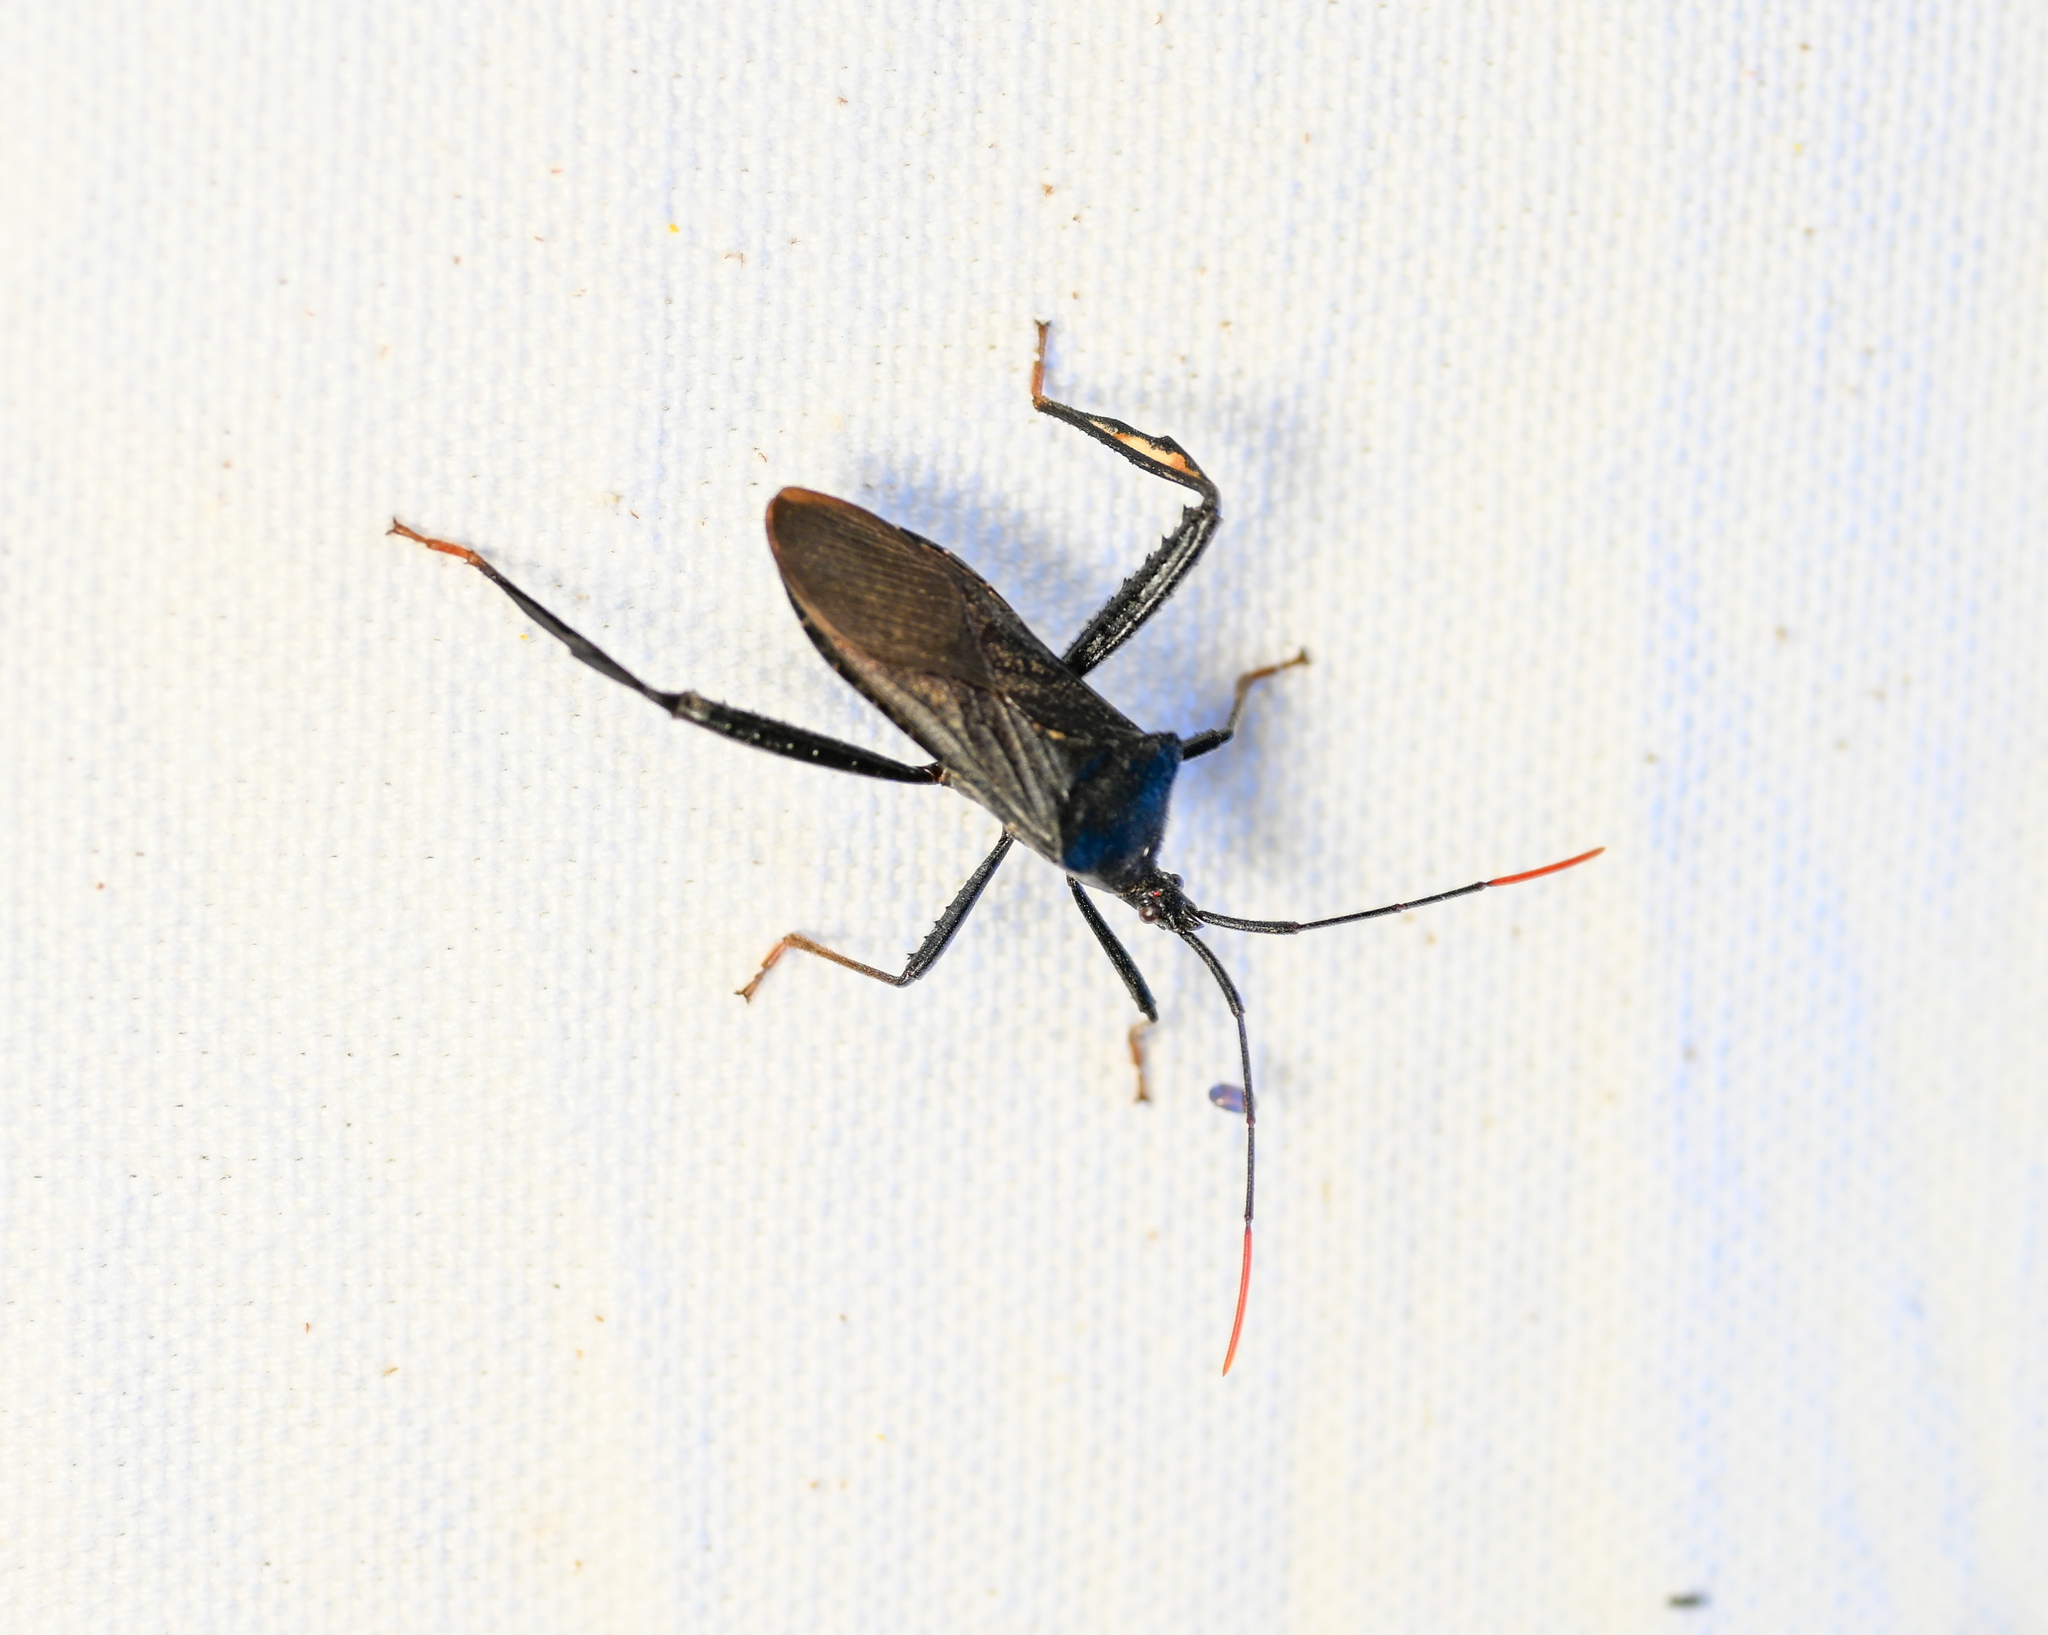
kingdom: Animalia
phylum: Arthropoda
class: Insecta
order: Hemiptera
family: Coreidae
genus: Acanthocephala
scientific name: Acanthocephala terminalis
